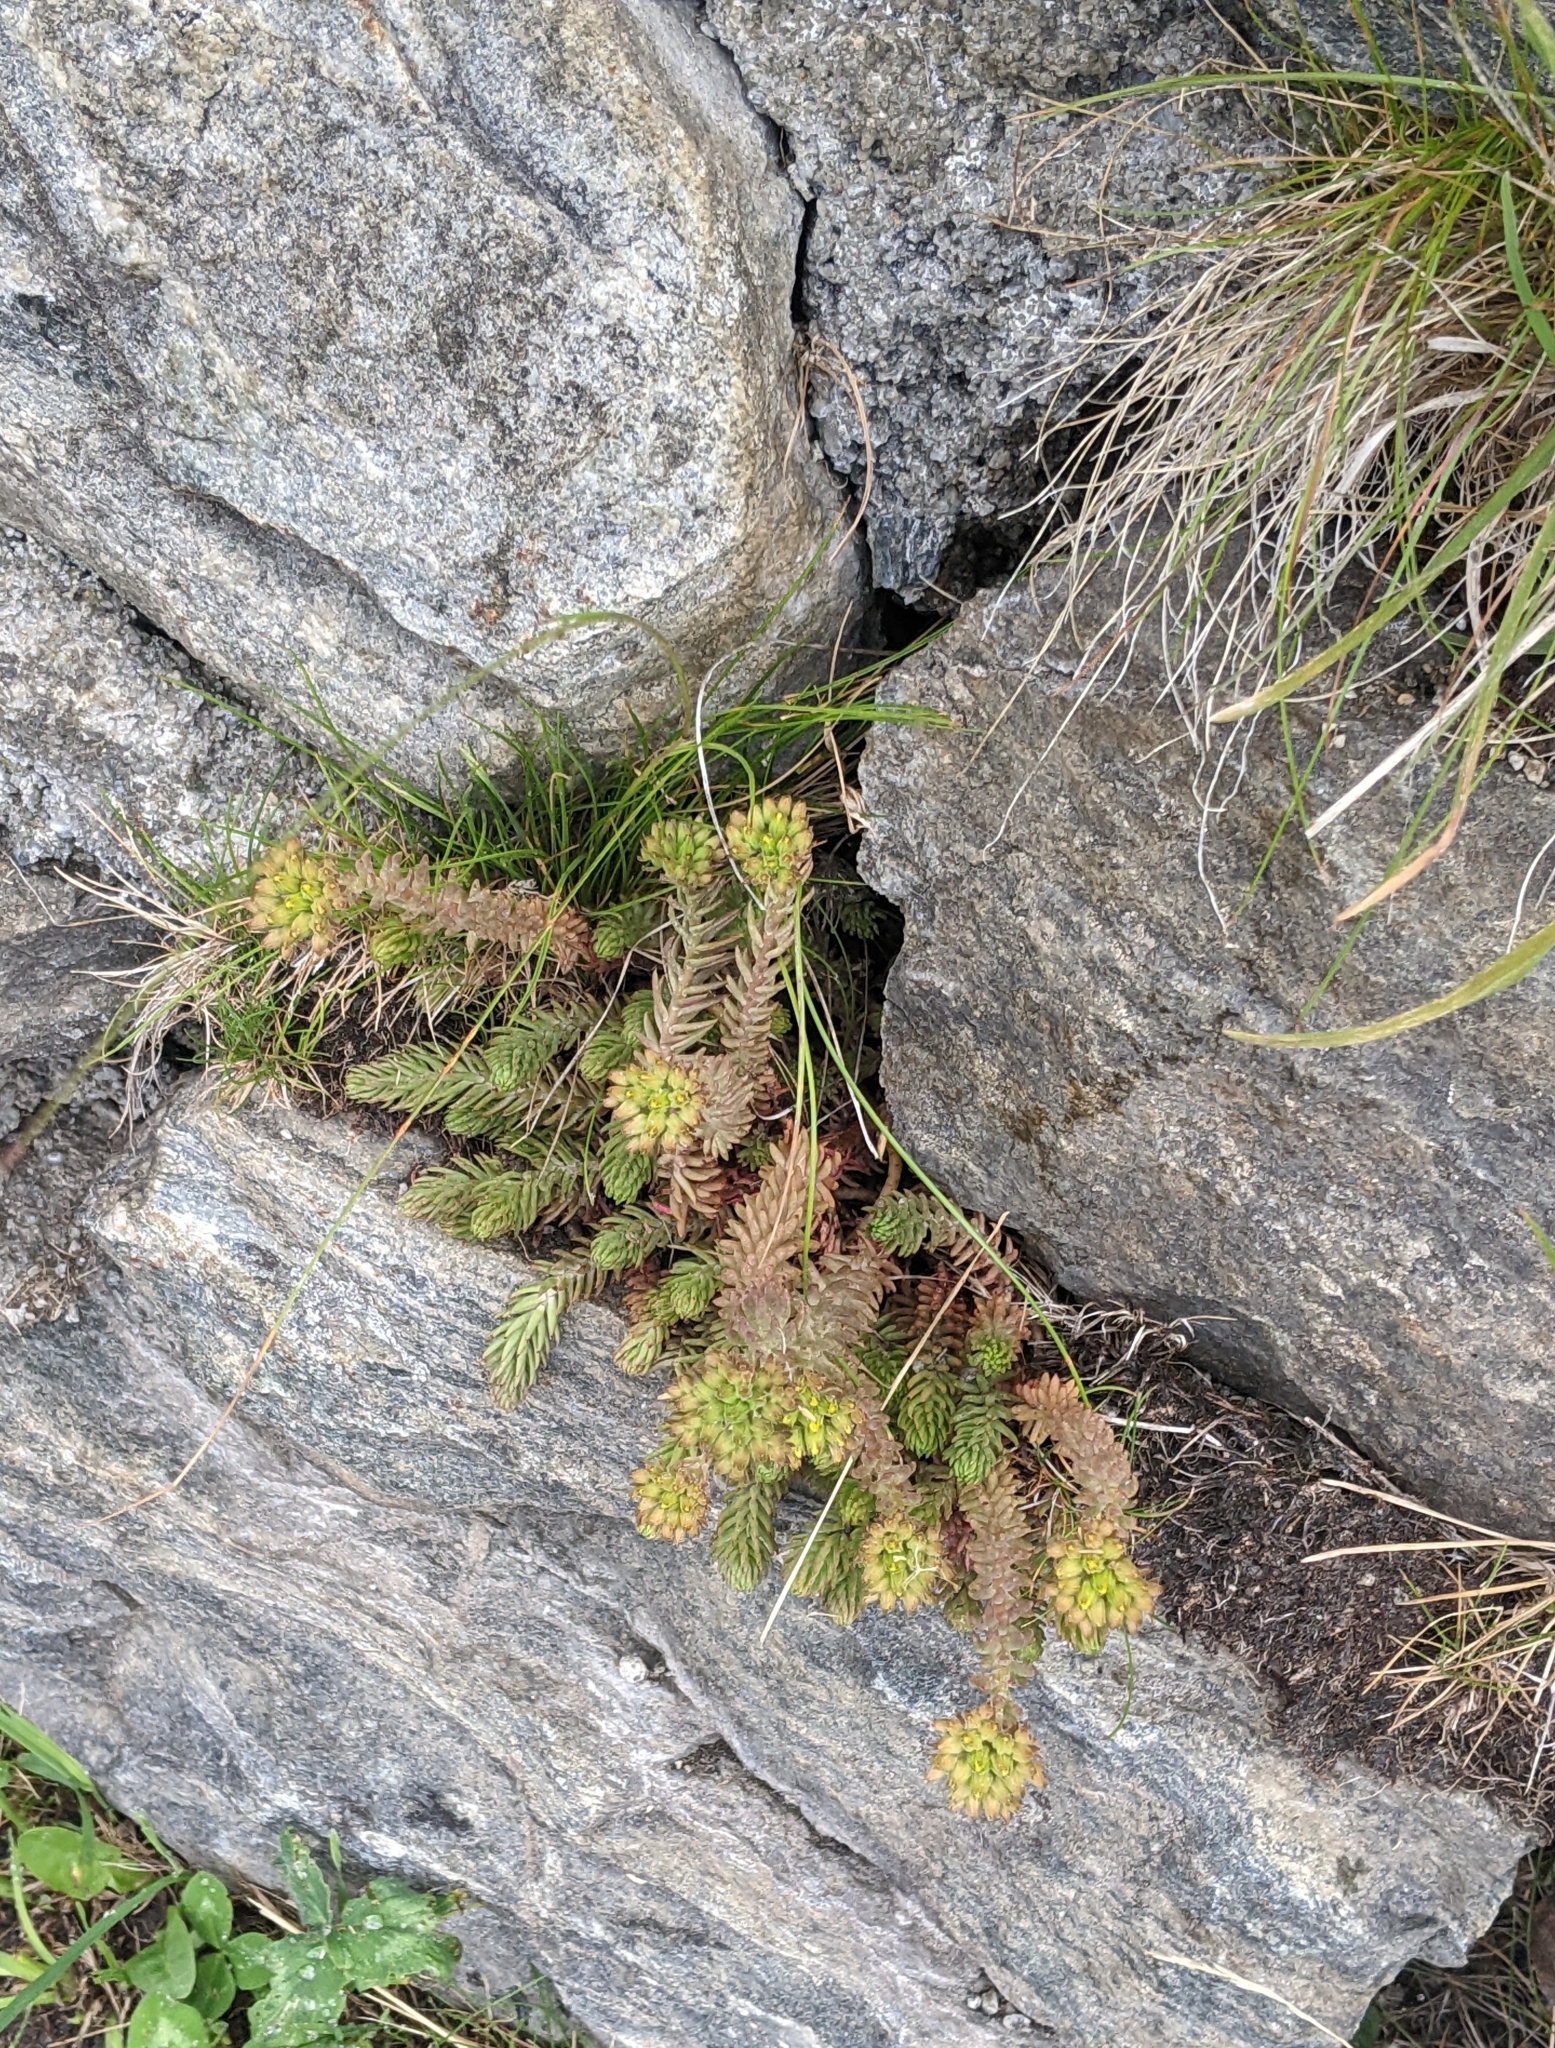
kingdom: Plantae
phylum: Tracheophyta
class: Magnoliopsida
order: Saxifragales
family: Crassulaceae
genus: Petrosedum
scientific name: Petrosedum montanum
